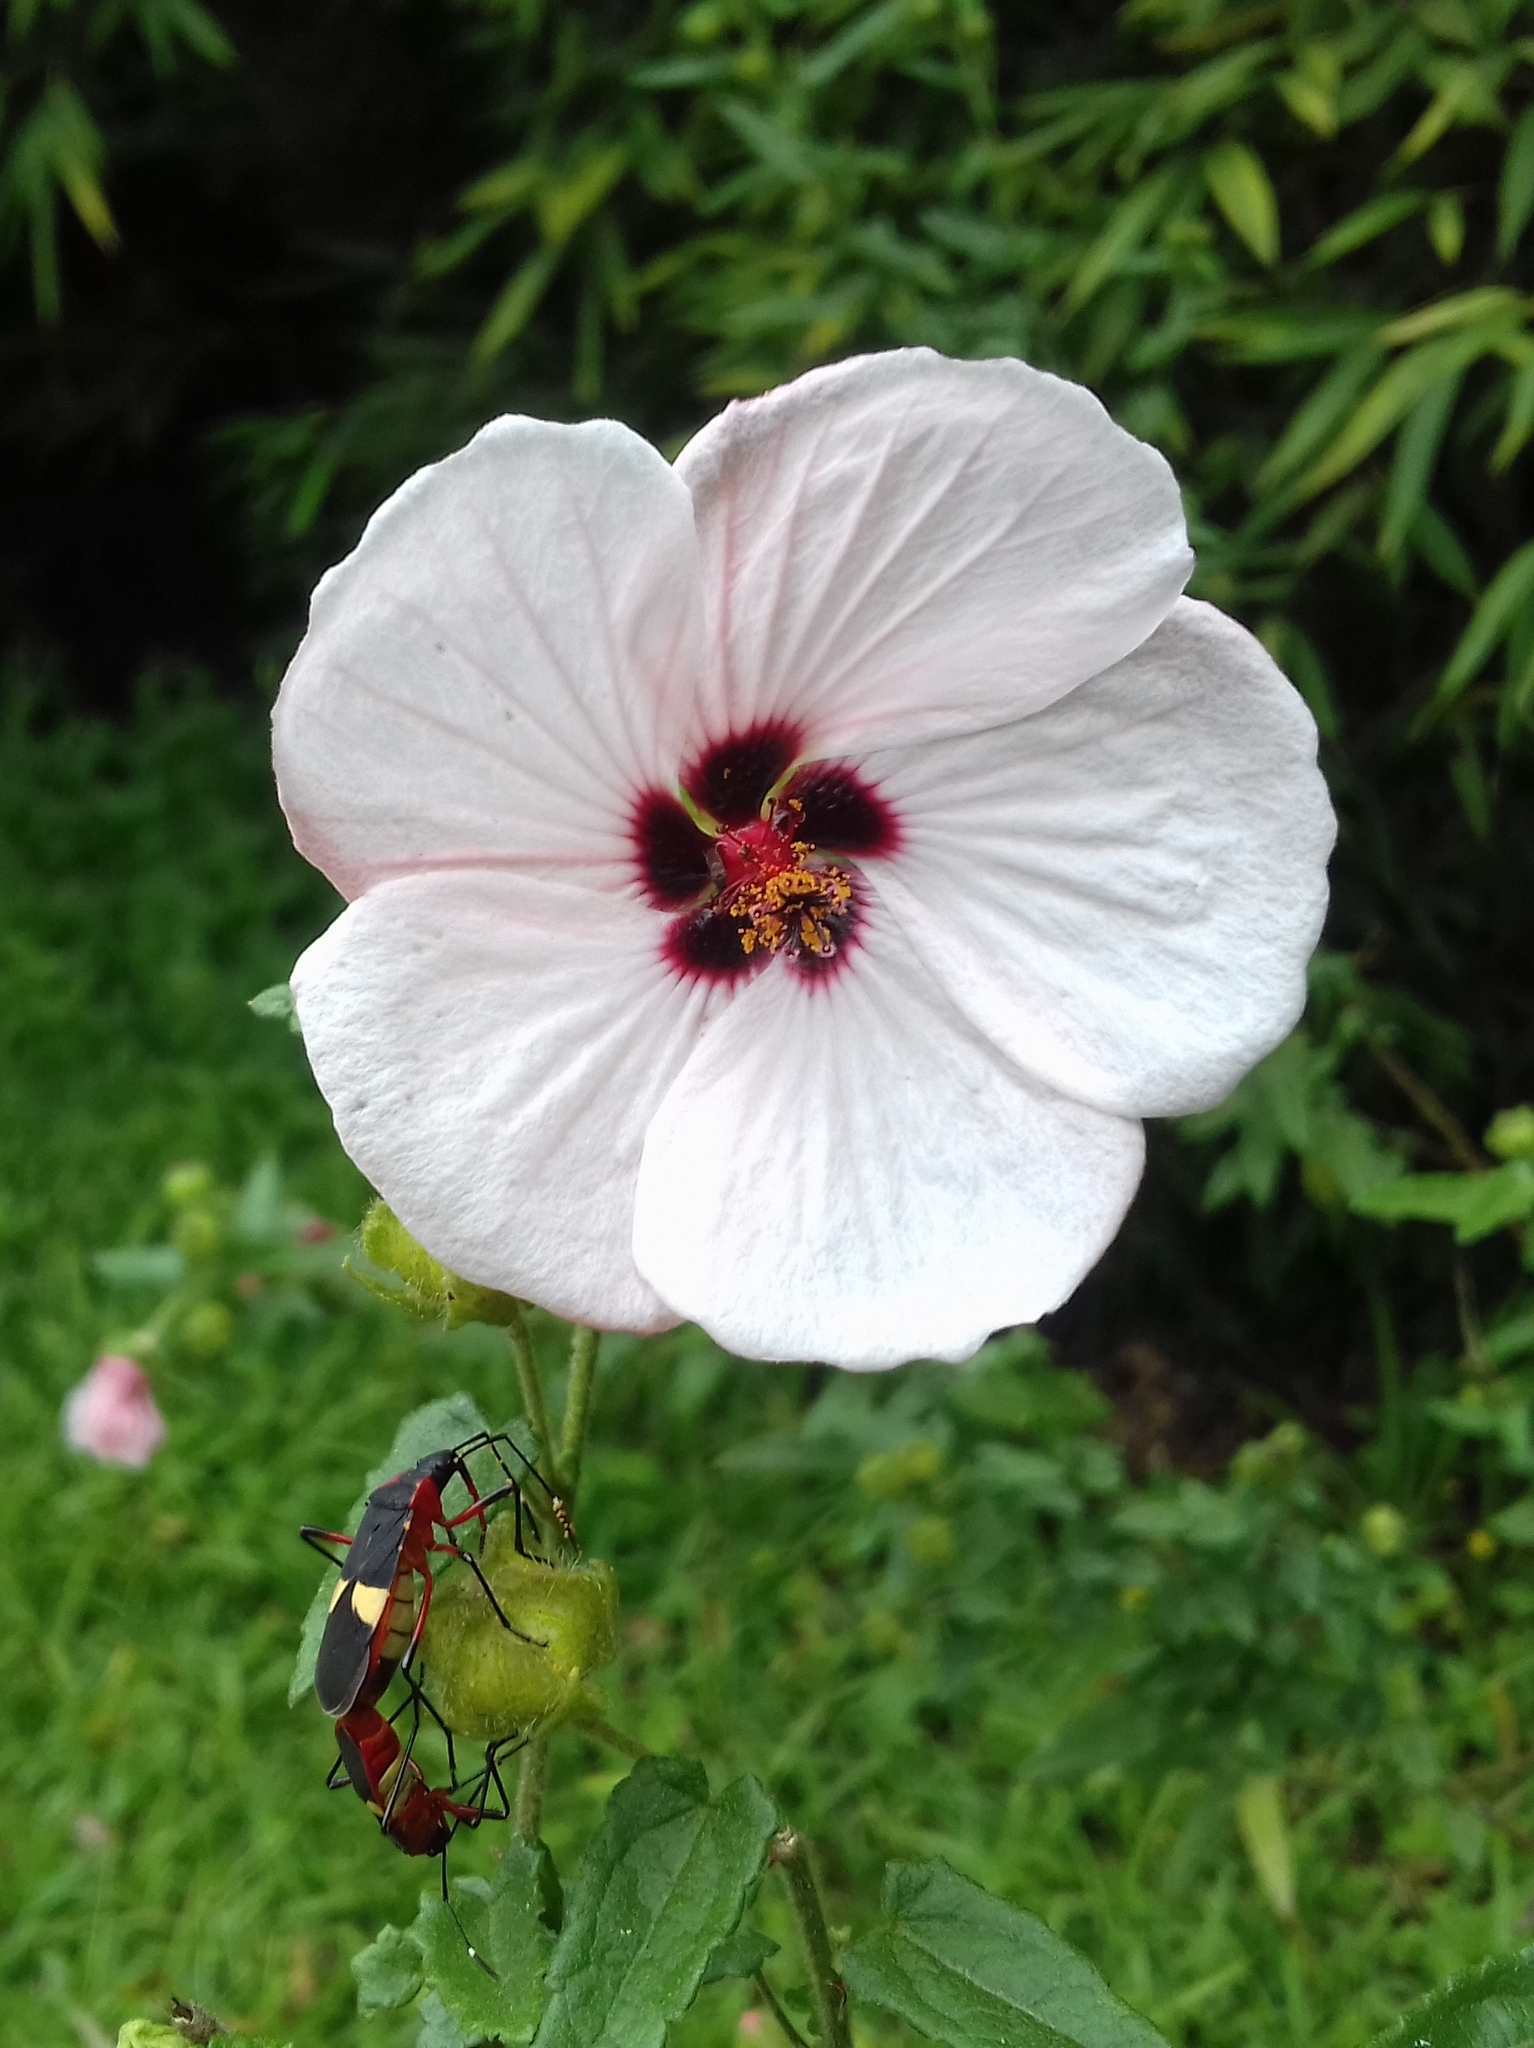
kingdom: Plantae
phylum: Tracheophyta
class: Magnoliopsida
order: Malvales
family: Malvaceae
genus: Pavonia
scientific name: Pavonia hastata
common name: Spearleaf swampmallow
